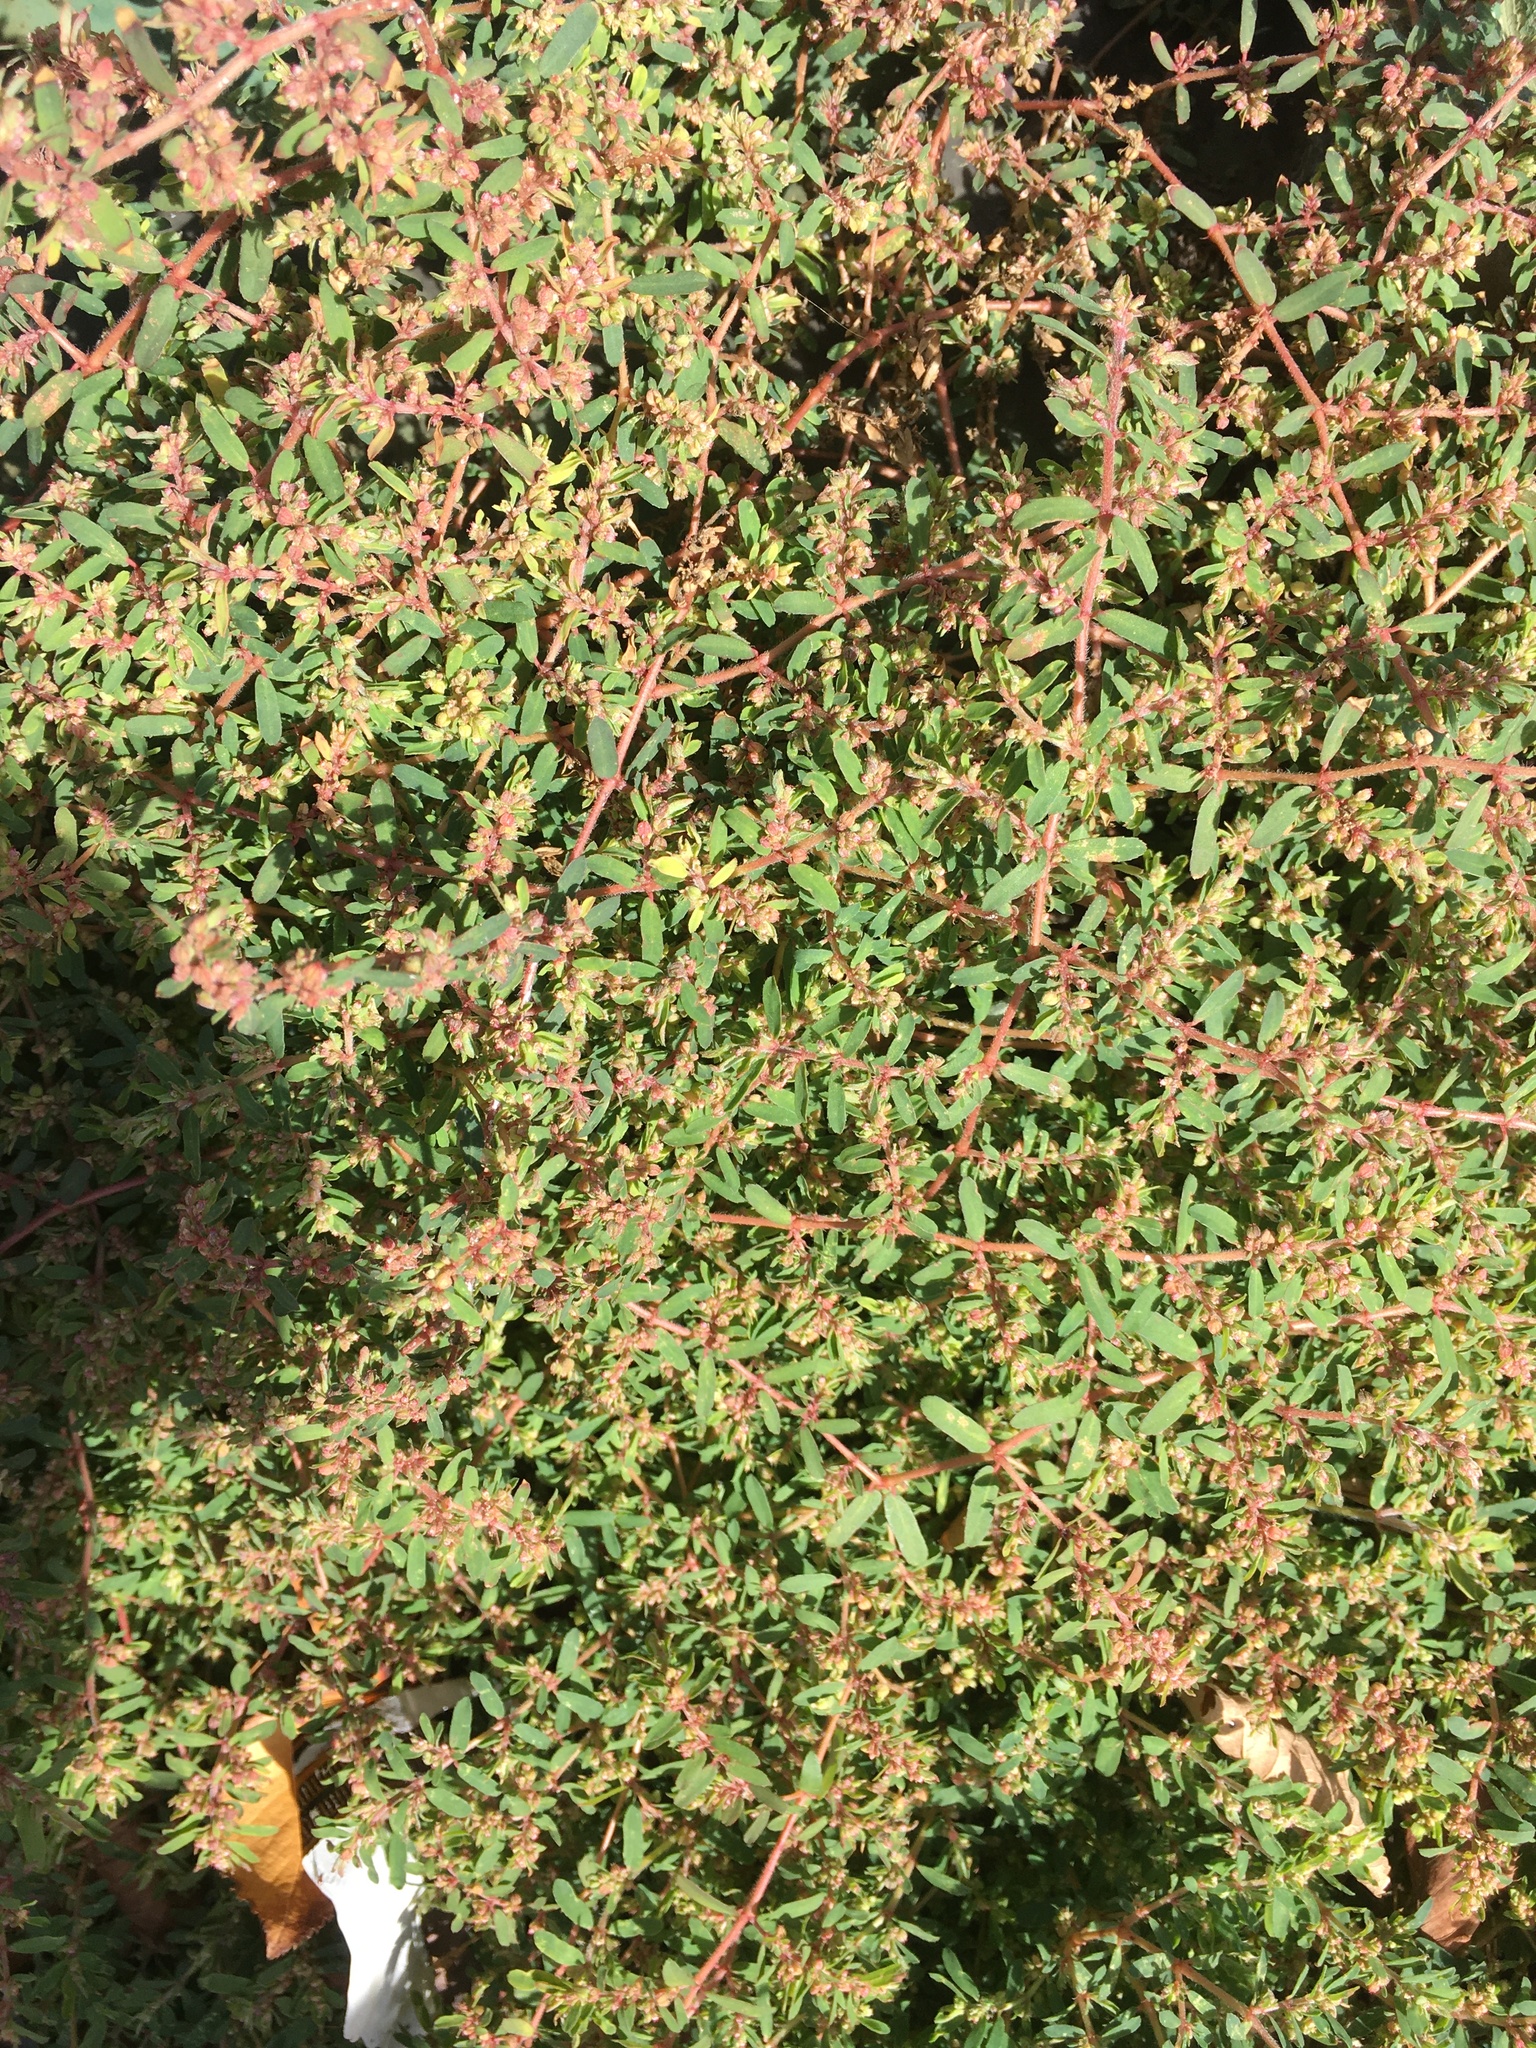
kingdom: Plantae
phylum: Tracheophyta
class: Magnoliopsida
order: Malpighiales
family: Euphorbiaceae
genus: Euphorbia
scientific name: Euphorbia maculata
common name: Spotted spurge
